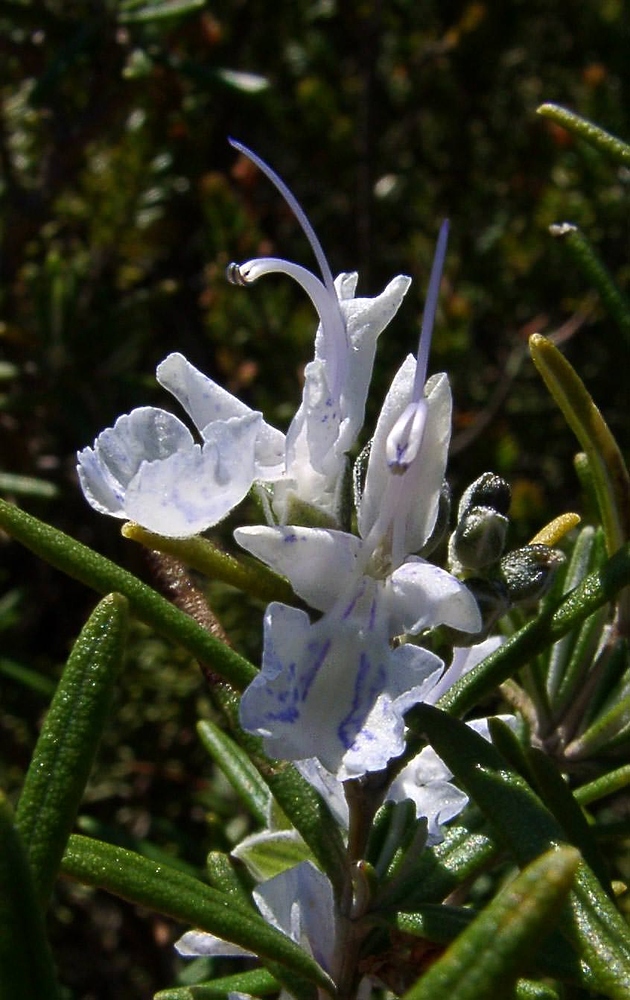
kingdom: Plantae
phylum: Tracheophyta
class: Magnoliopsida
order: Lamiales
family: Lamiaceae
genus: Salvia
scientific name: Salvia rosmarinus
